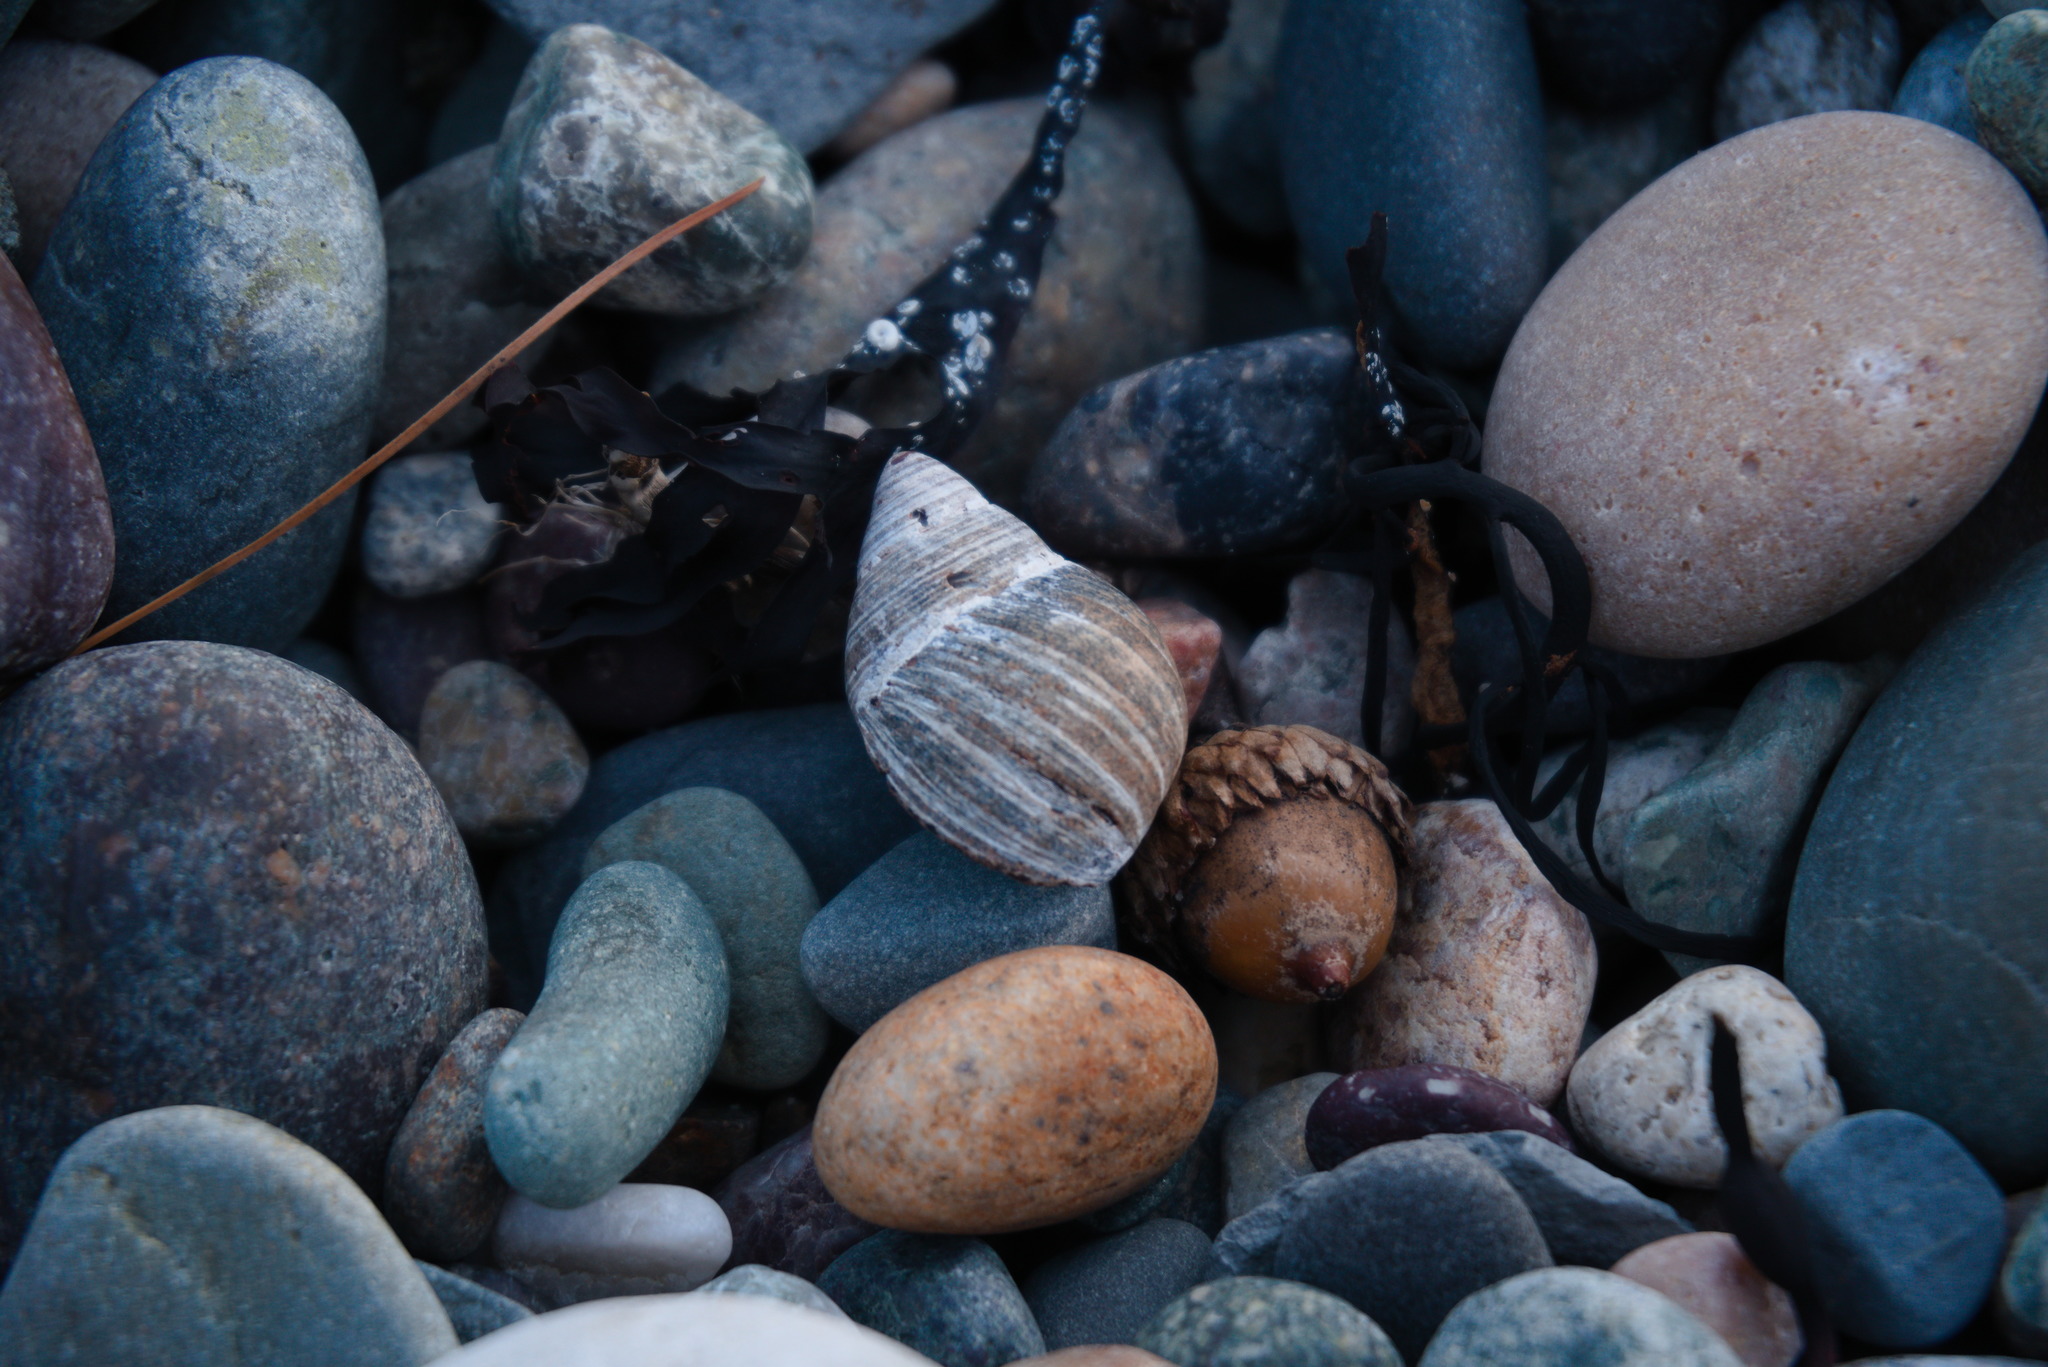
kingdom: Animalia
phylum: Mollusca
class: Gastropoda
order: Littorinimorpha
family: Littorinidae
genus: Littorina
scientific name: Littorina littorea
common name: Common periwinkle
